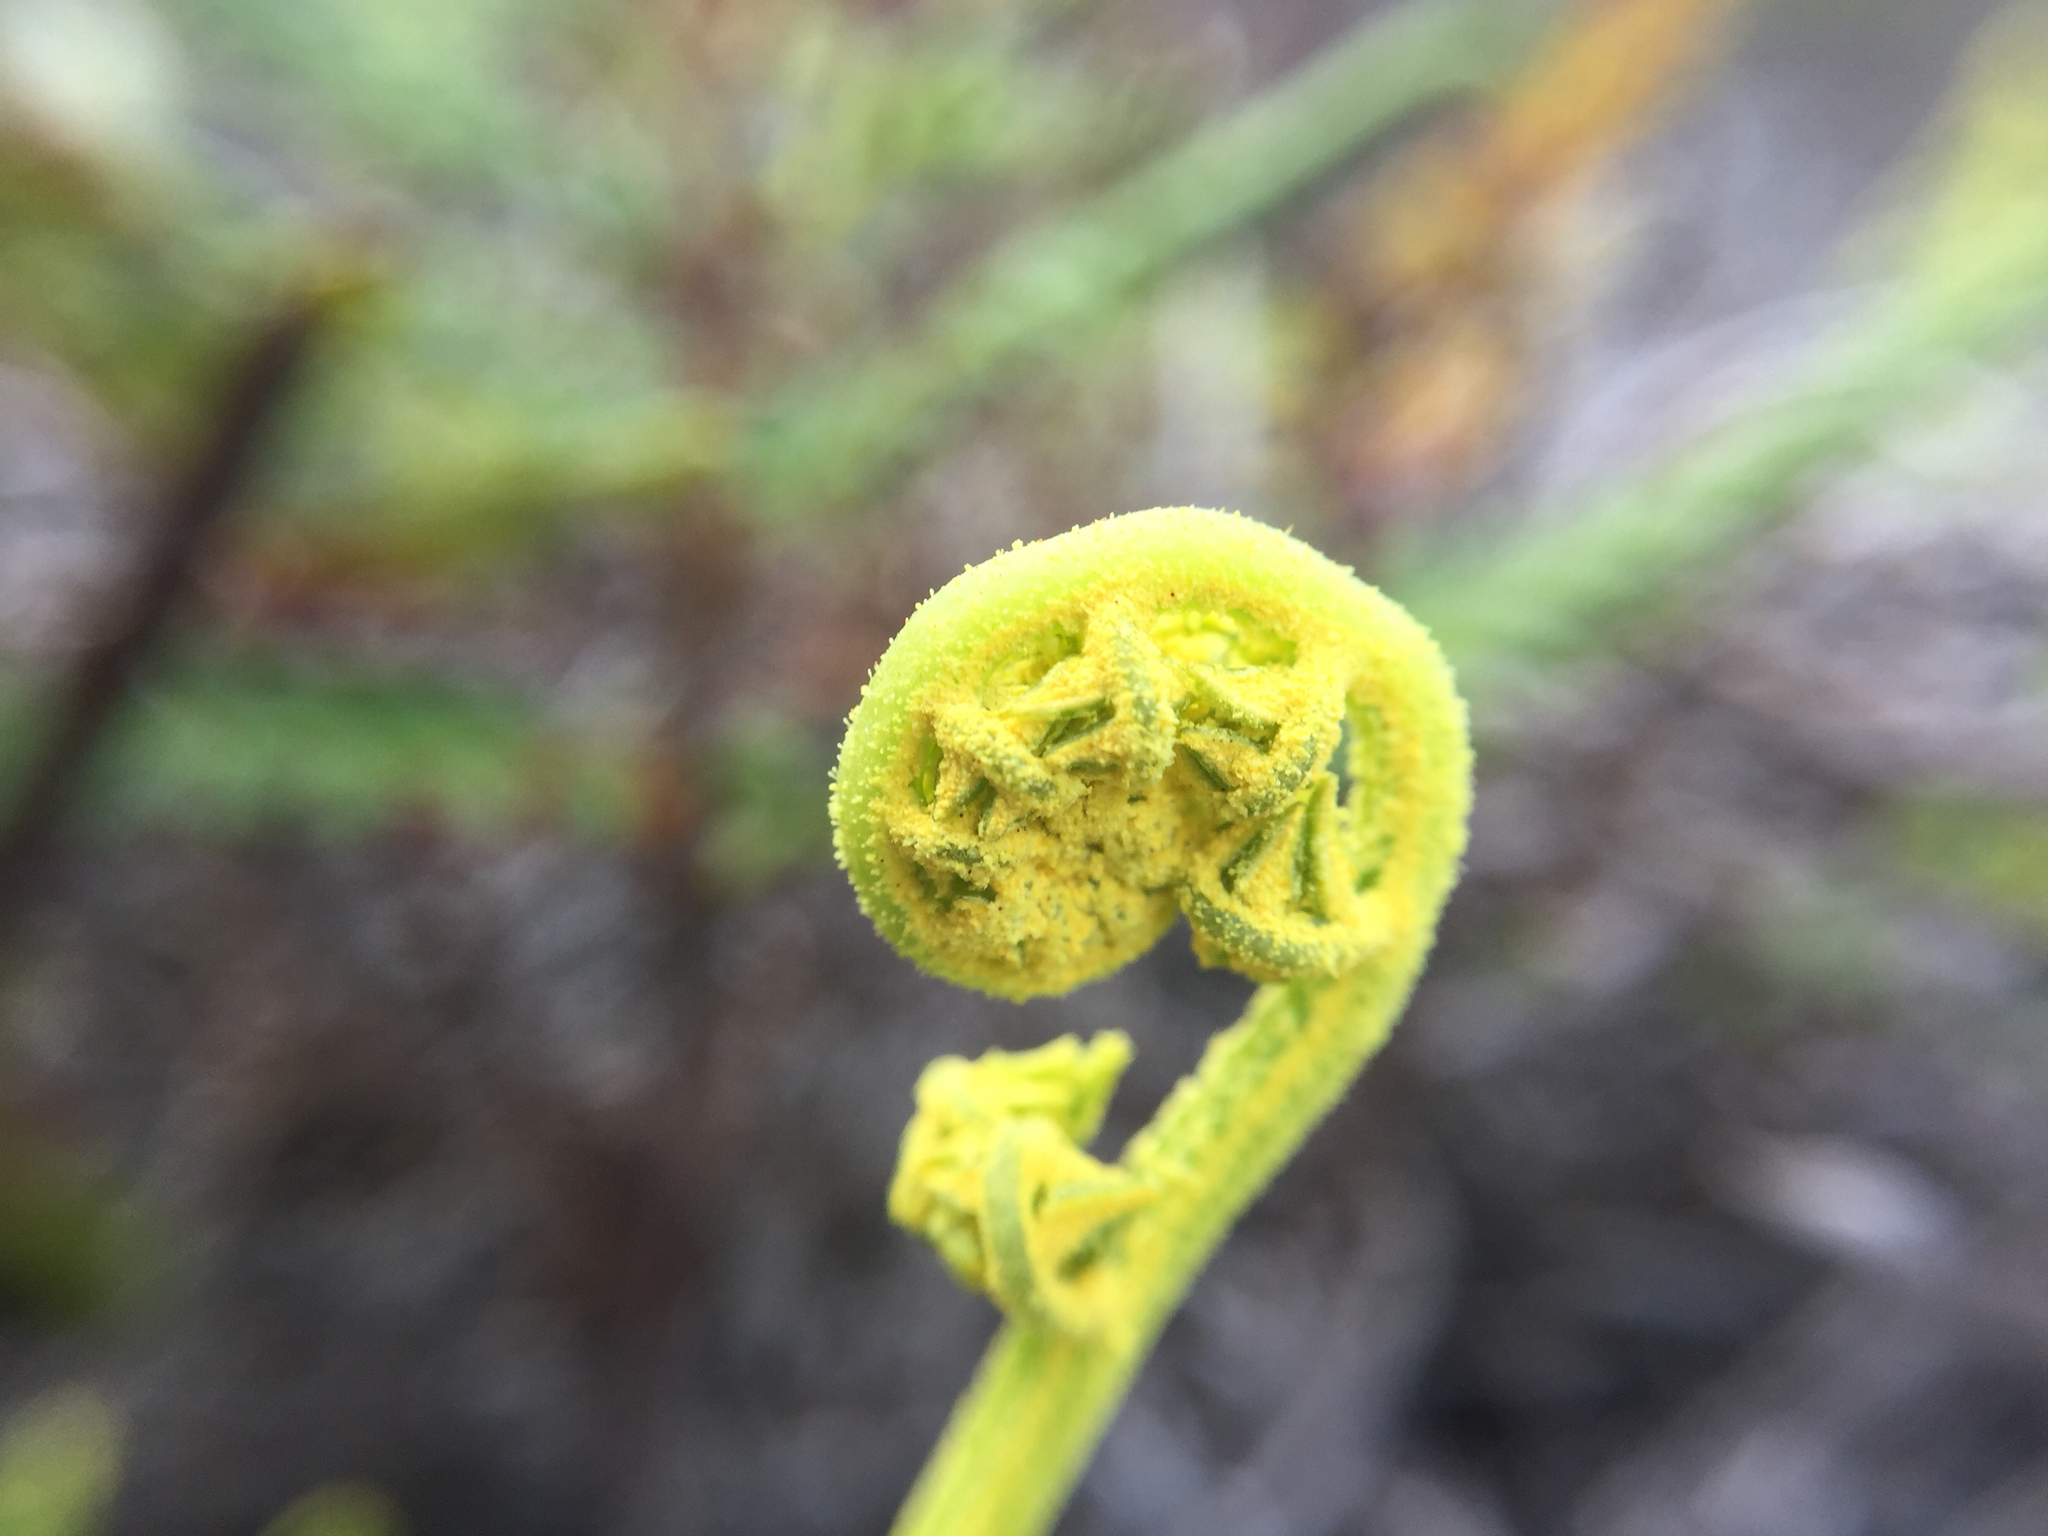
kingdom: Plantae
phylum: Tracheophyta
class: Polypodiopsida
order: Polypodiales
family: Pteridaceae
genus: Pityrogramma
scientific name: Pityrogramma austroamericana
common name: Leatherleaf goldback fern
